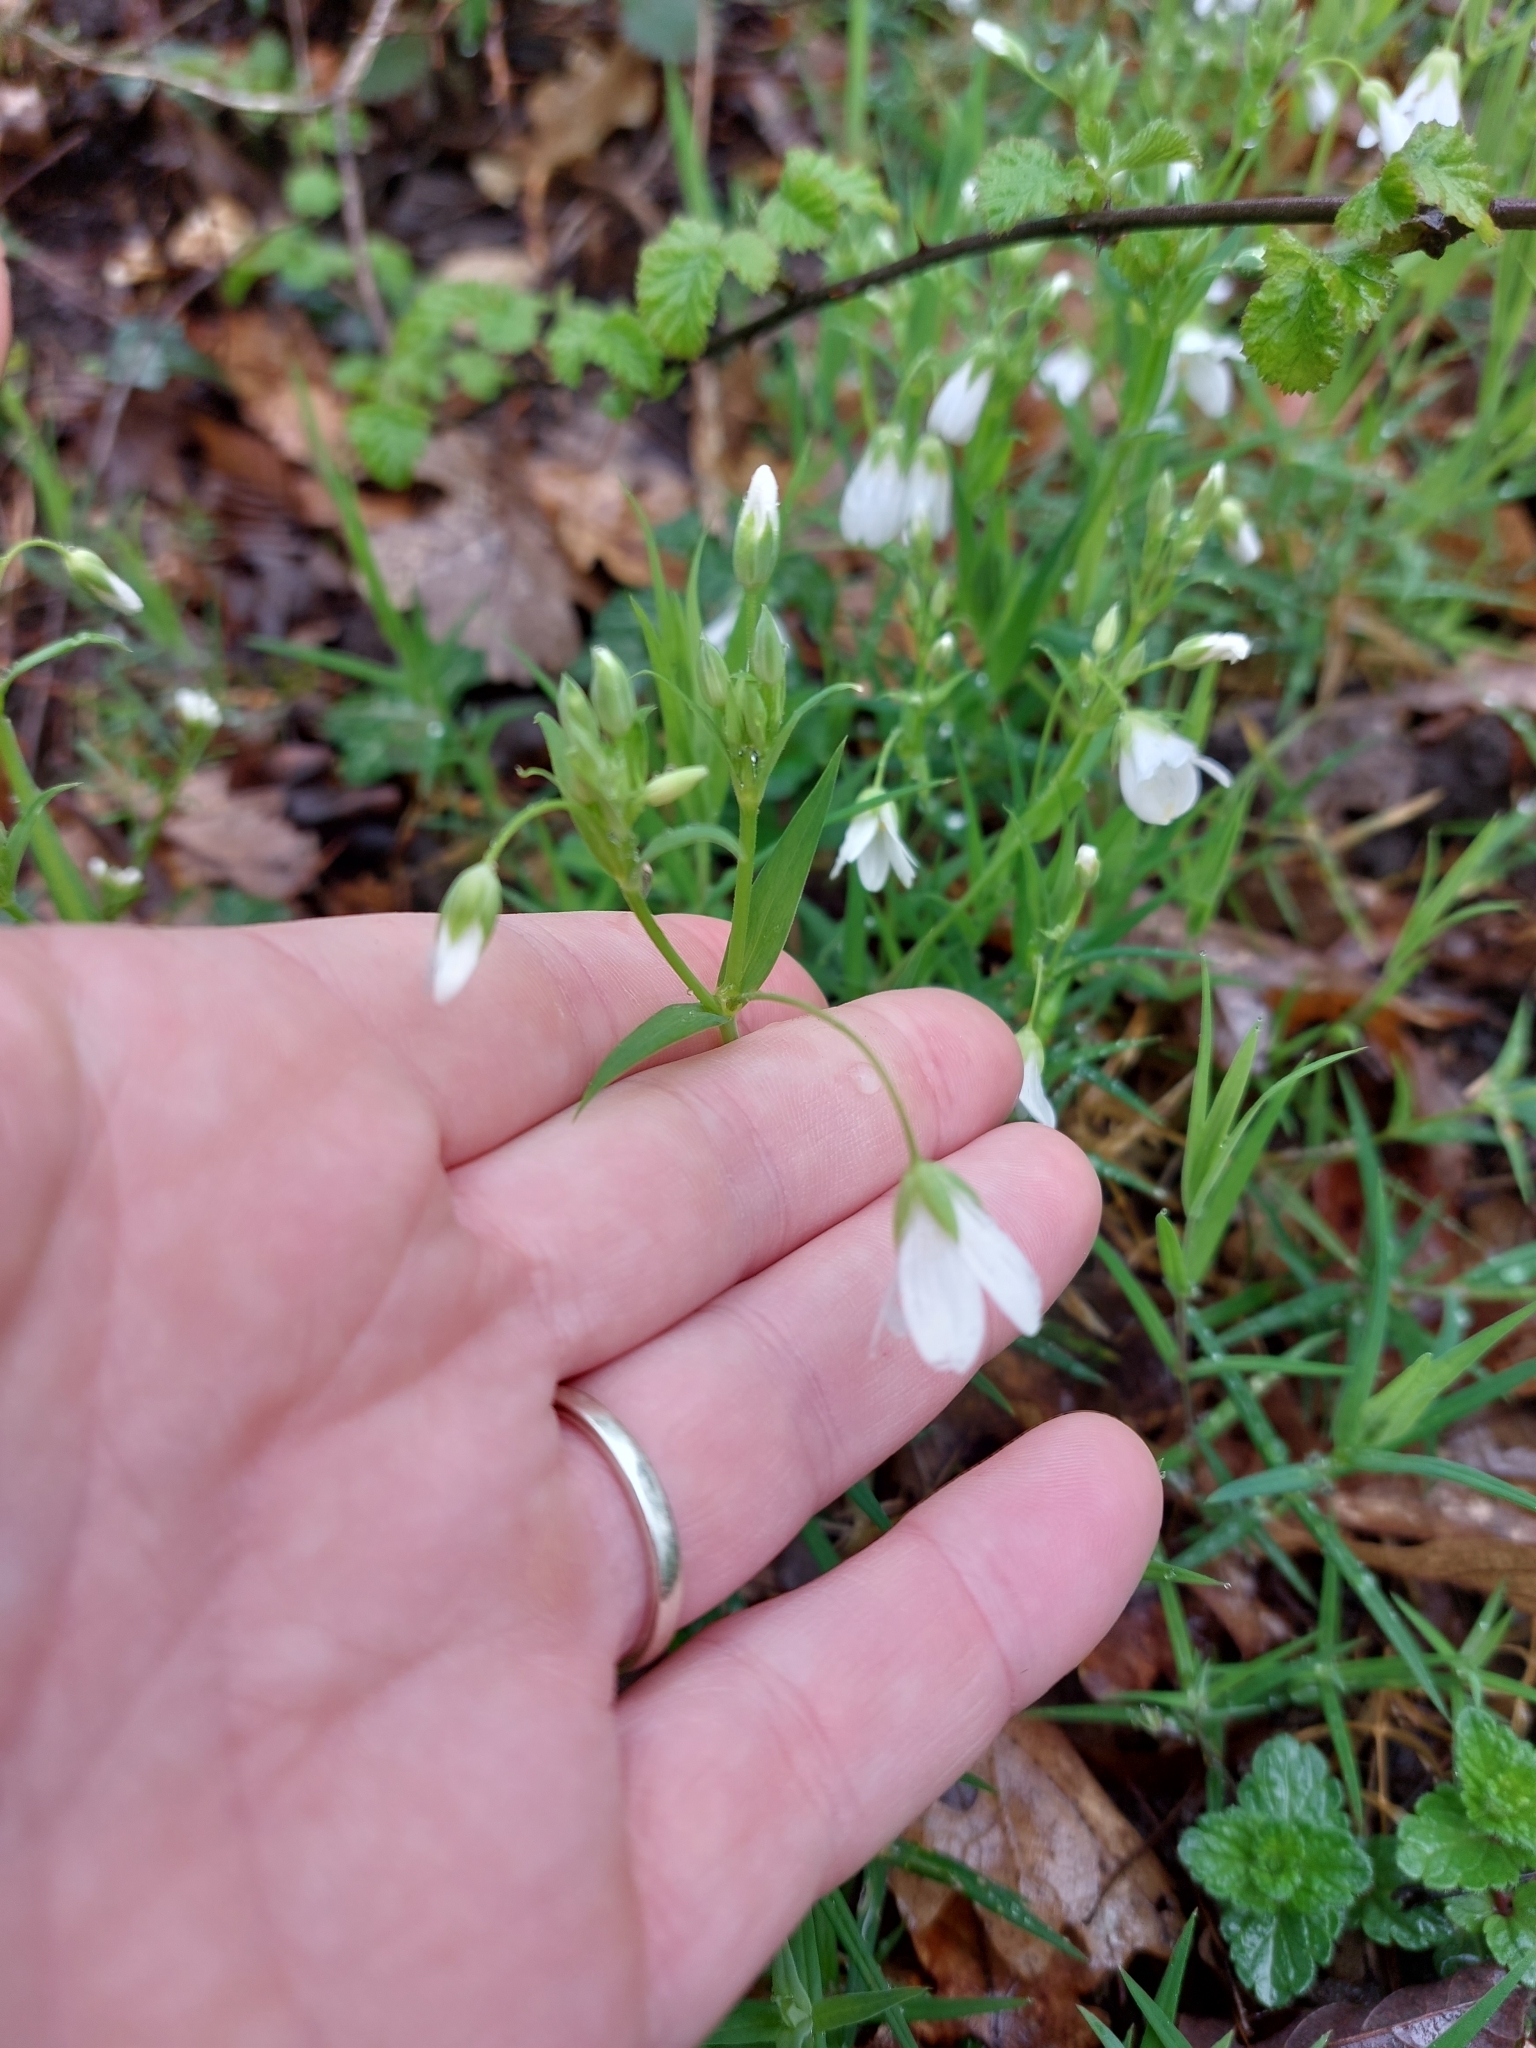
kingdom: Plantae
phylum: Tracheophyta
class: Magnoliopsida
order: Caryophyllales
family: Caryophyllaceae
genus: Rabelera
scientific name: Rabelera holostea
